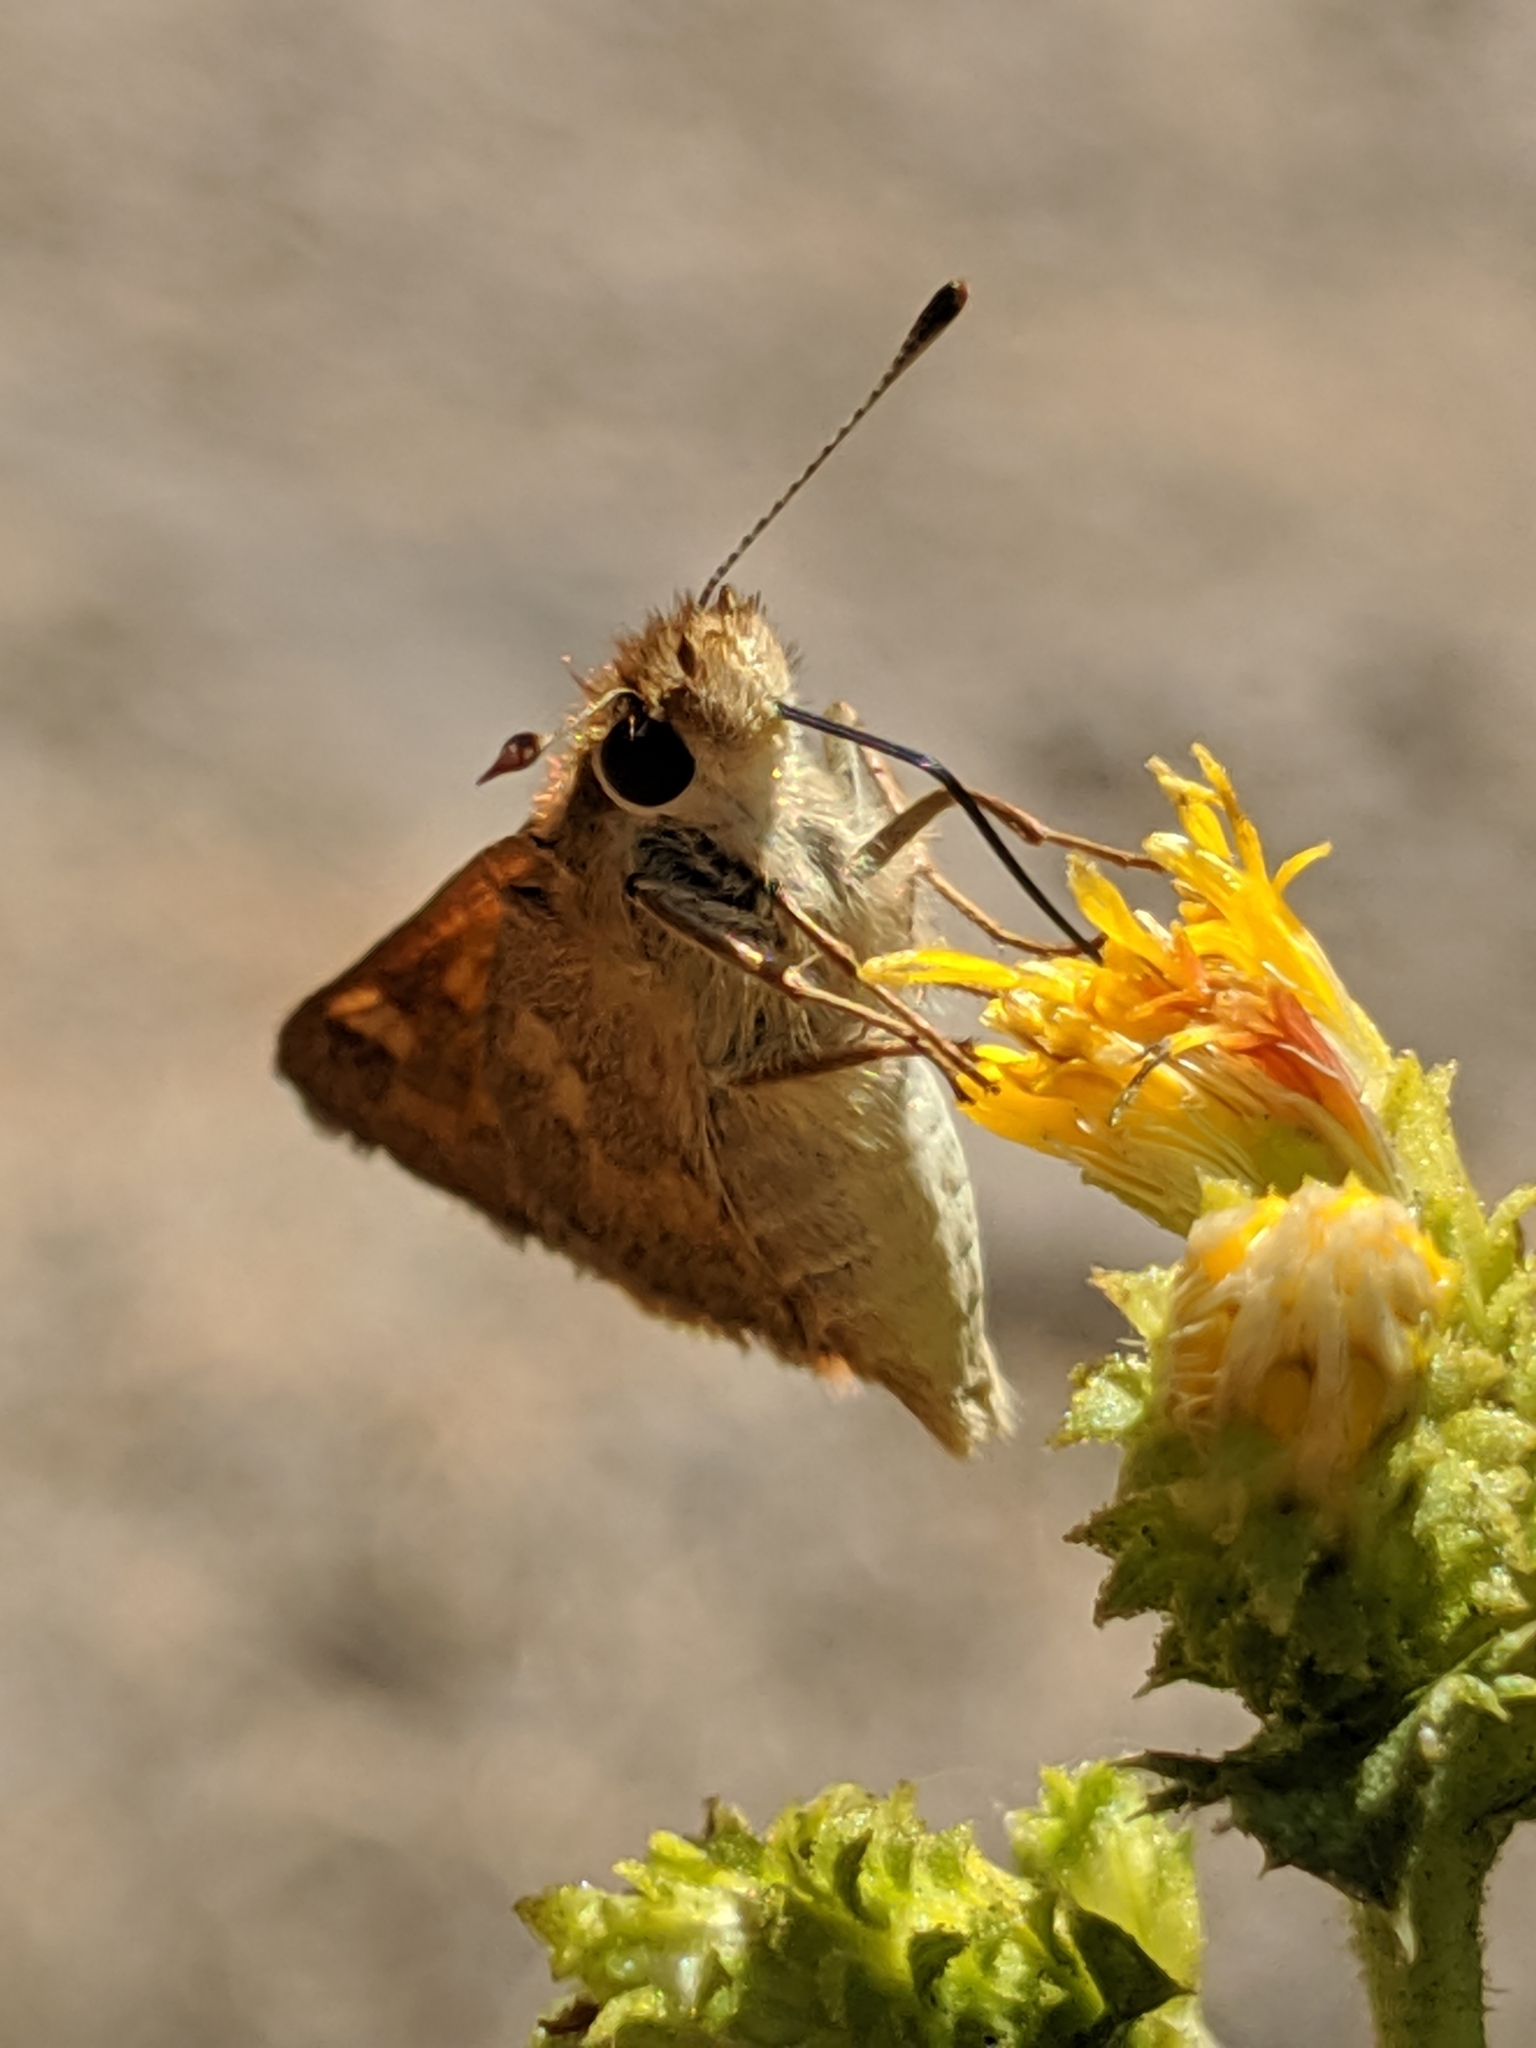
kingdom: Animalia
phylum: Arthropoda
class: Insecta
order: Lepidoptera
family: Hesperiidae
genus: Ochlodes
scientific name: Ochlodes sylvanoides
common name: Woodland skipper
